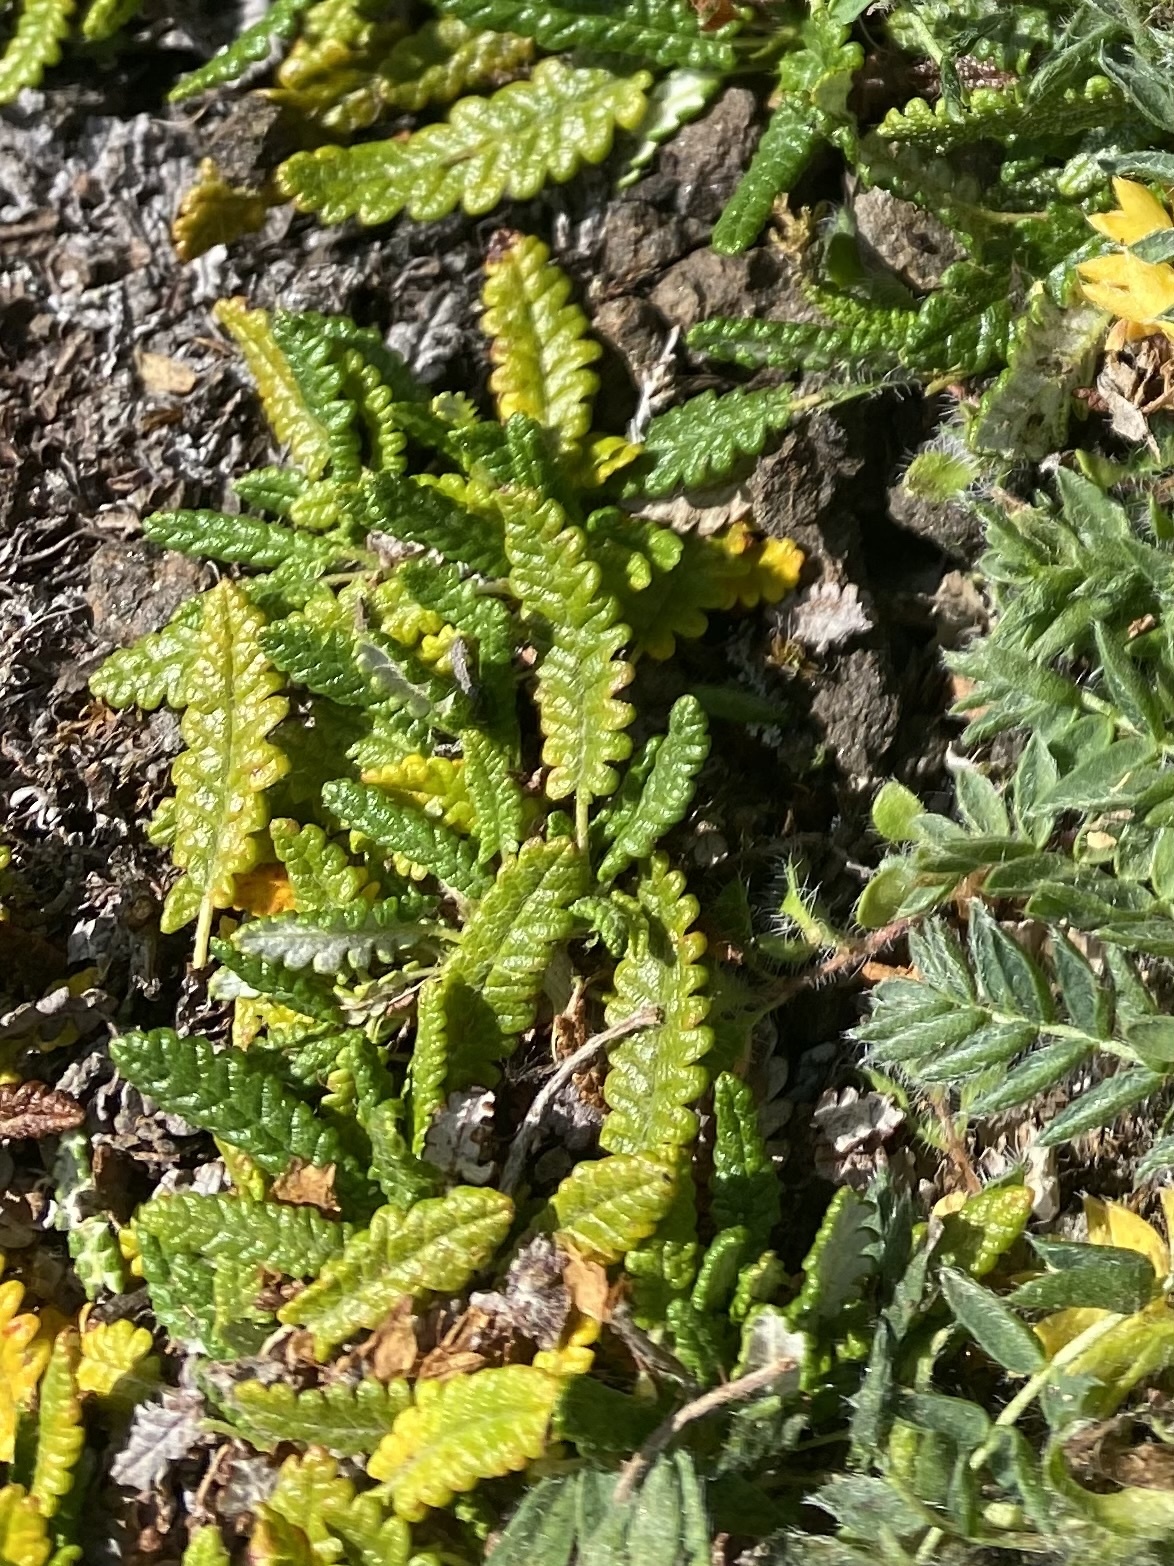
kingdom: Plantae
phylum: Tracheophyta
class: Magnoliopsida
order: Rosales
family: Rosaceae
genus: Dryas
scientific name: Dryas octopetala
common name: Eight-petal mountain-avens
